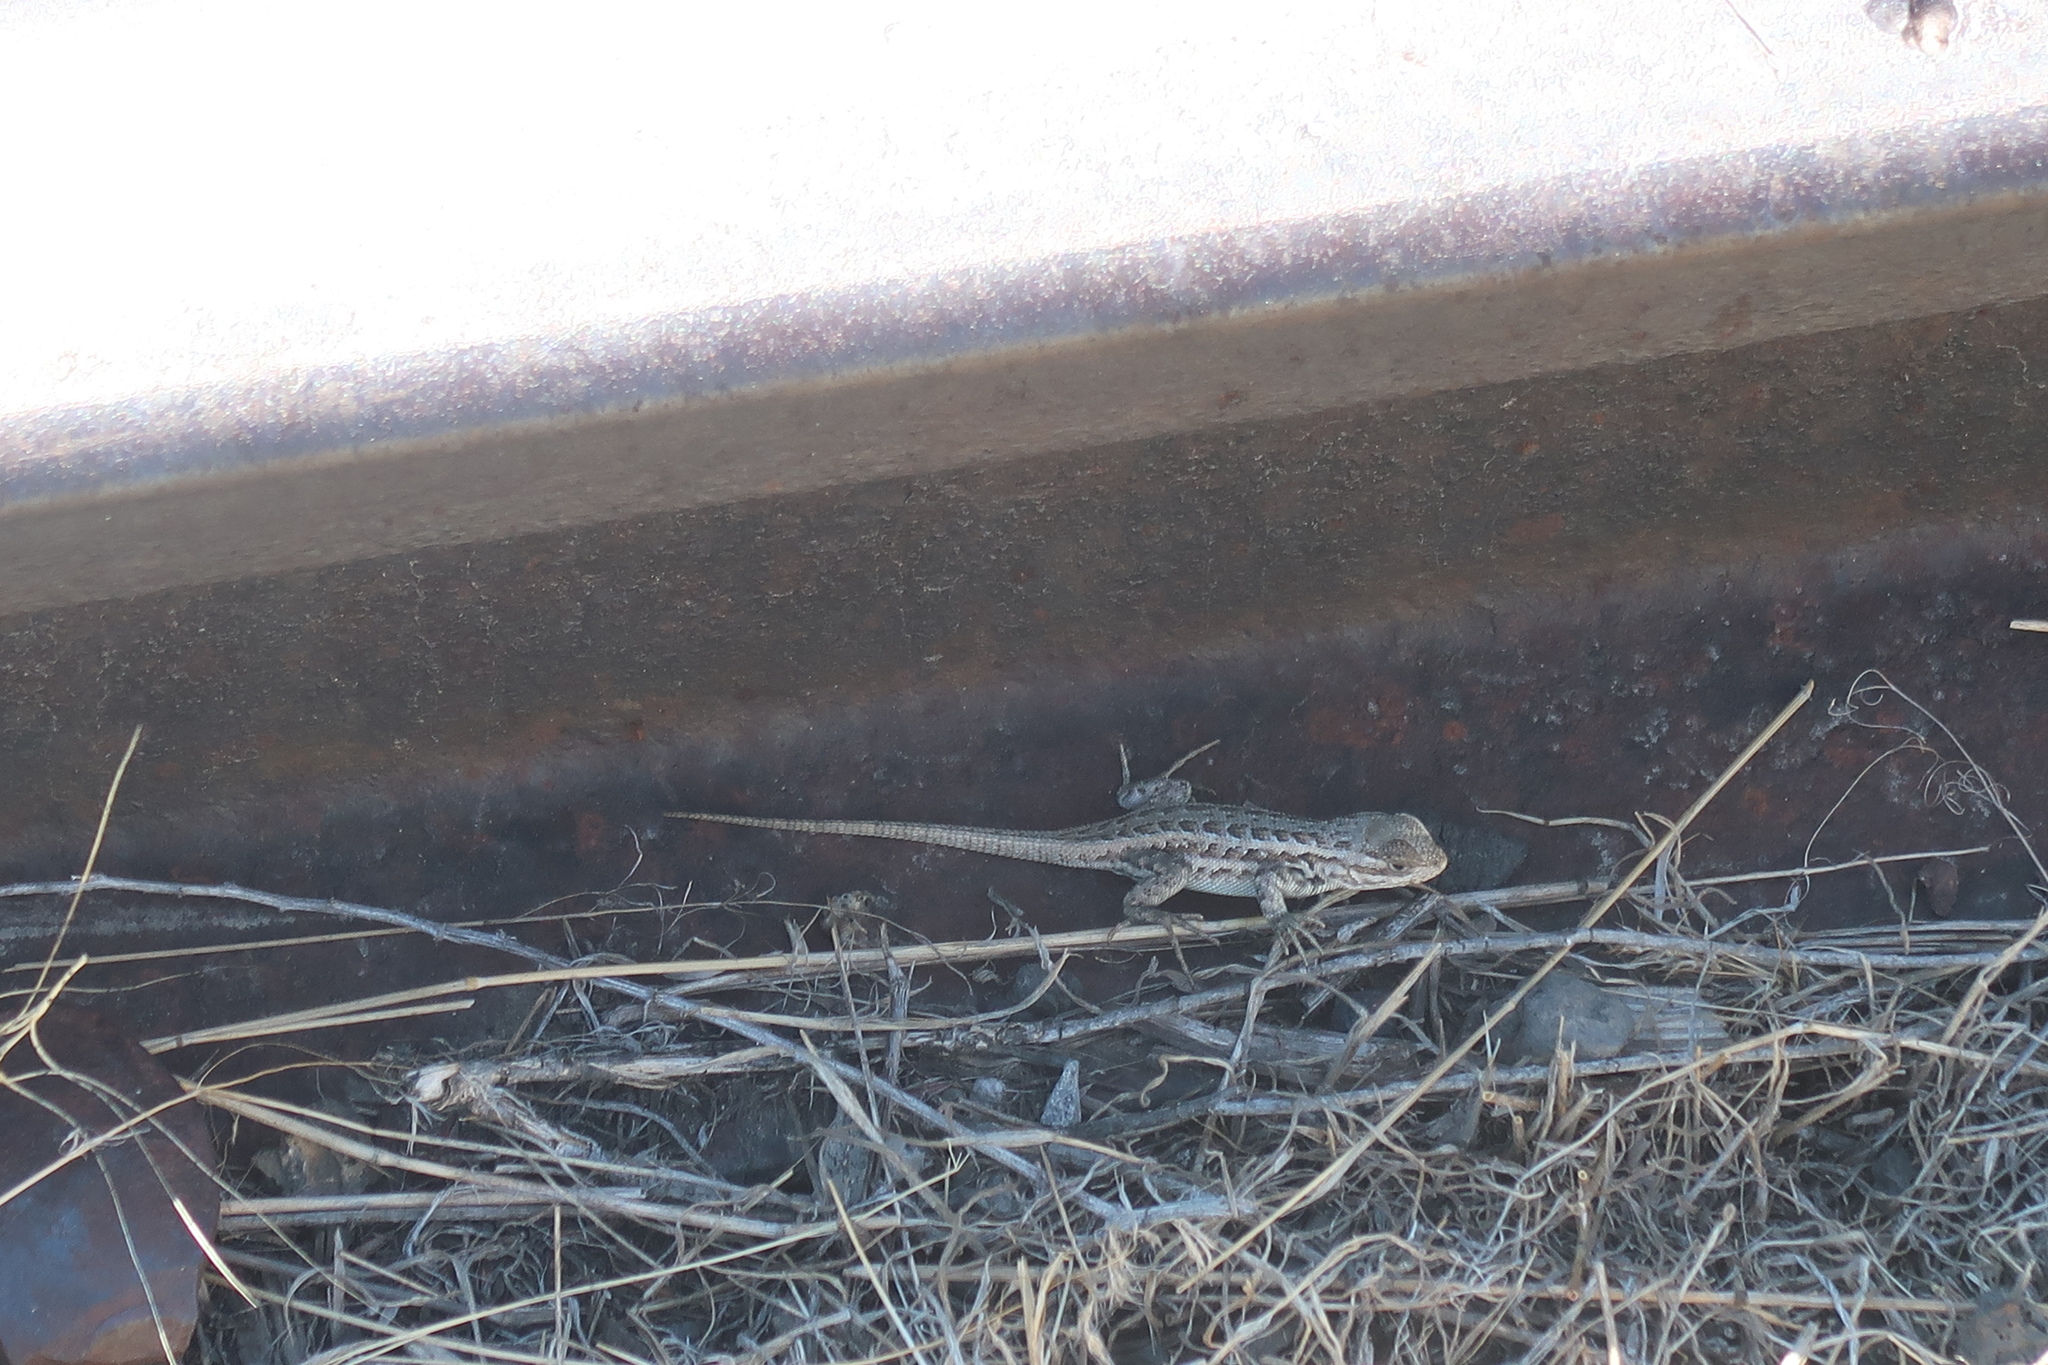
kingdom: Animalia
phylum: Chordata
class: Squamata
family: Phrynosomatidae
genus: Sceloporus
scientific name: Sceloporus graciosus
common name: Sagebrush lizard
